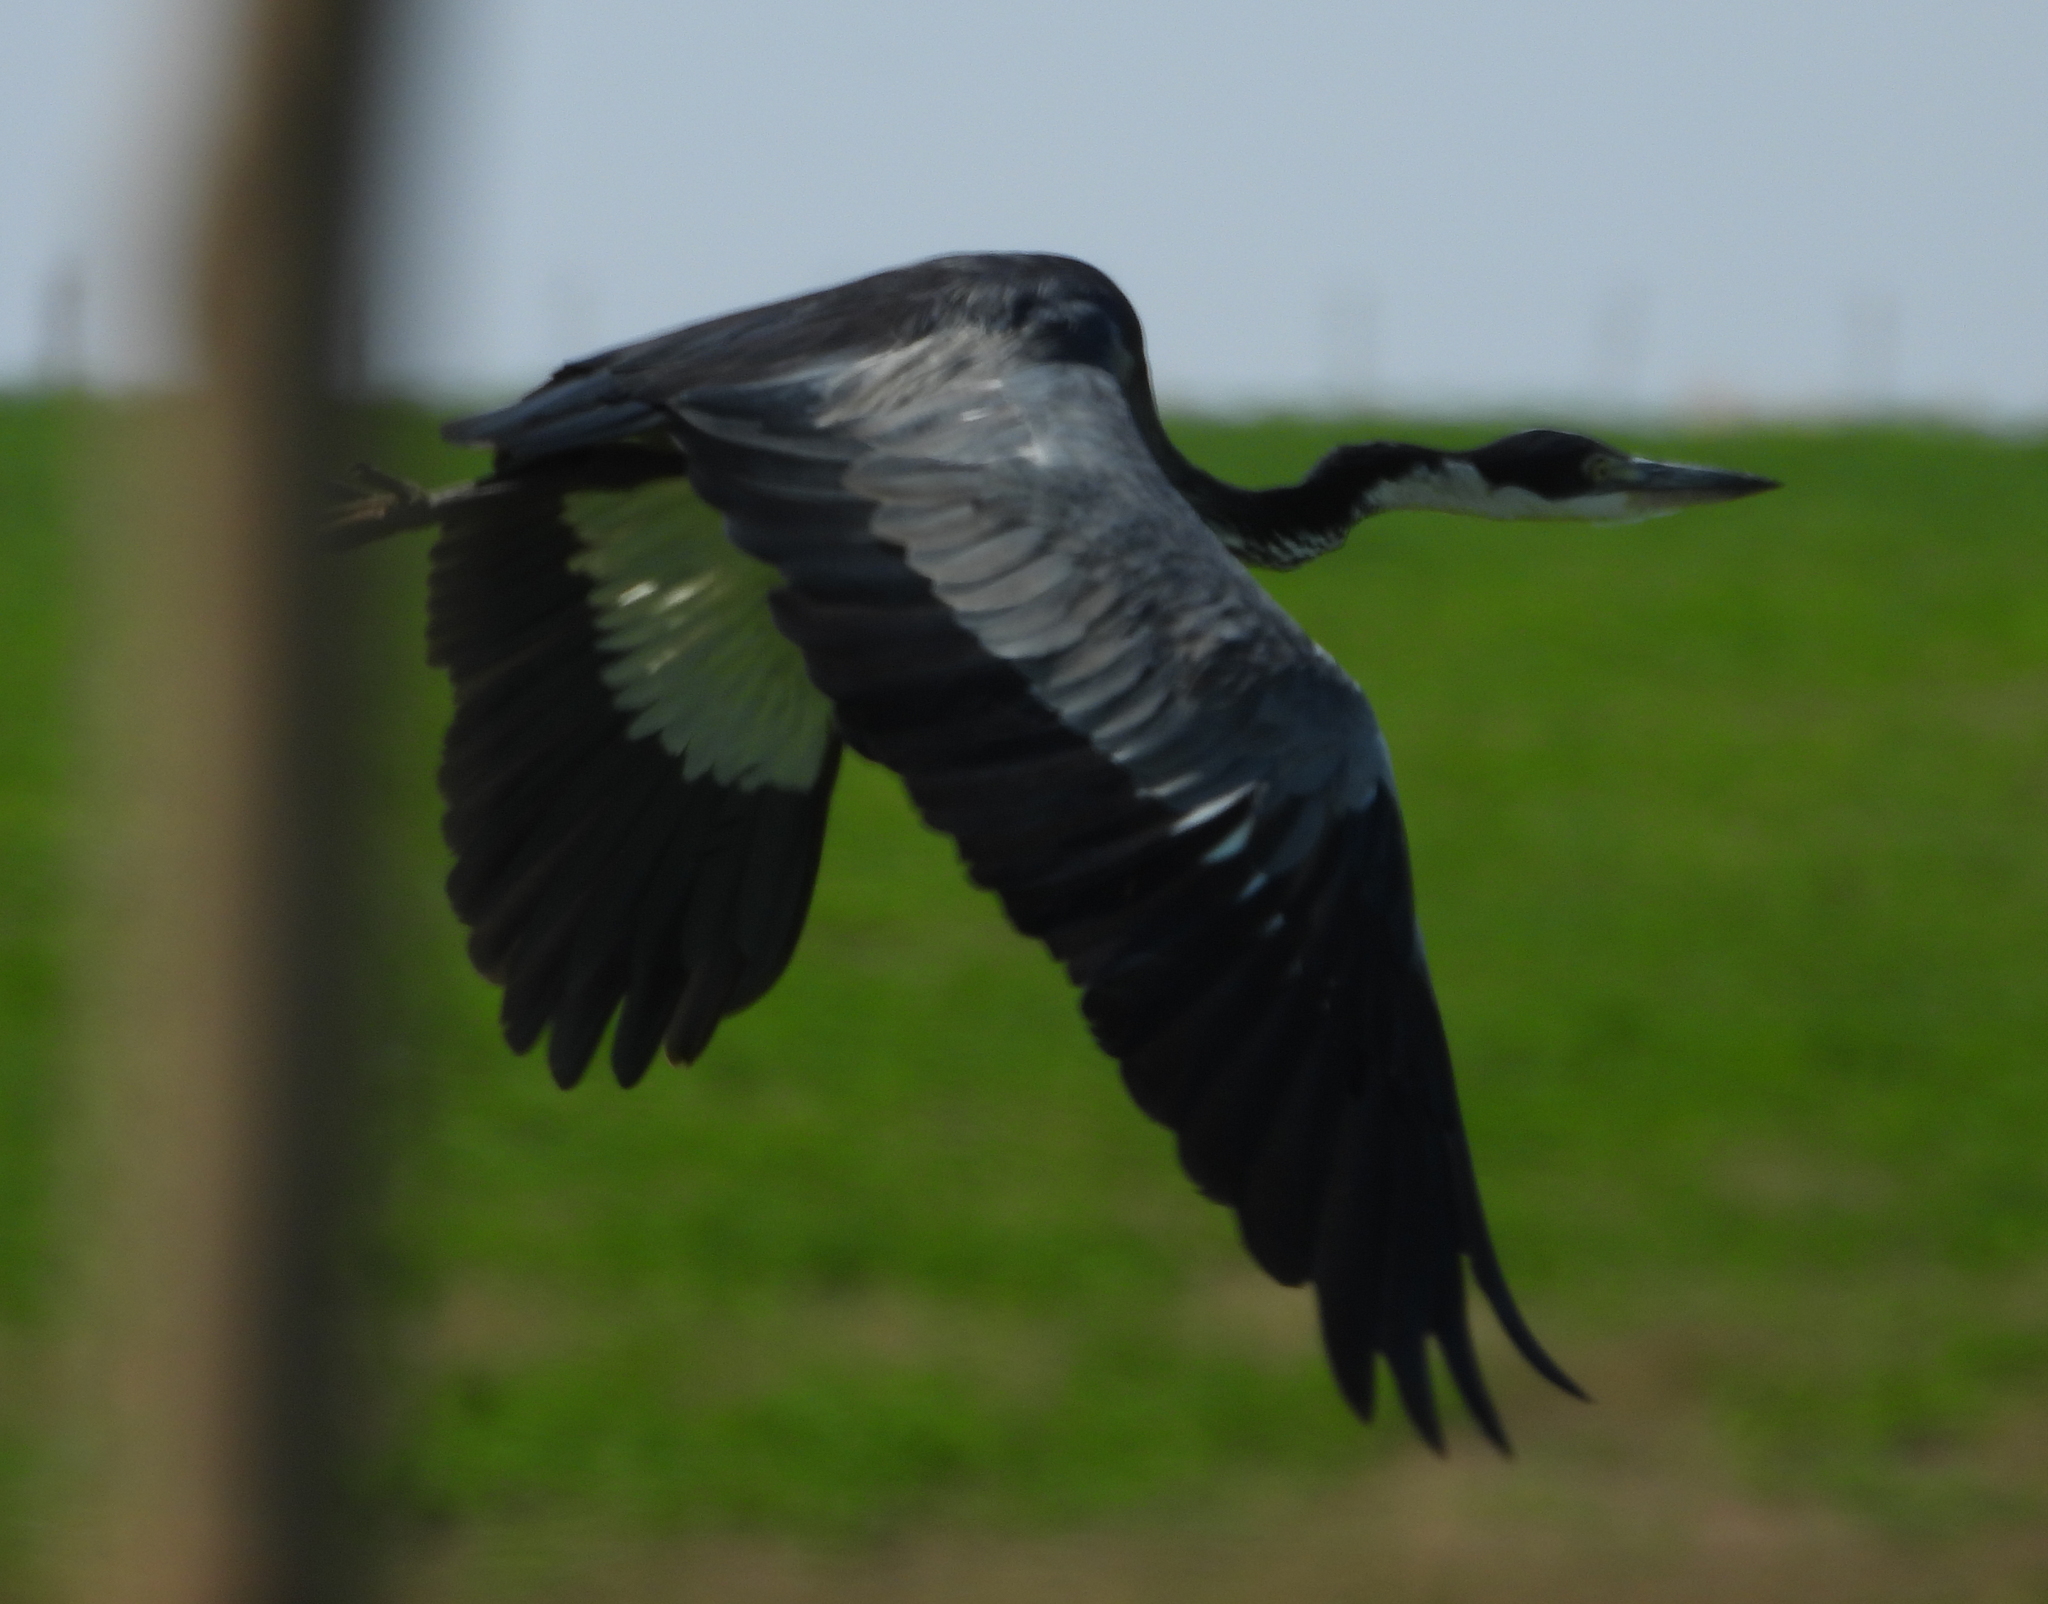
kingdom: Animalia
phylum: Chordata
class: Aves
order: Pelecaniformes
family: Ardeidae
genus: Ardea
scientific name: Ardea melanocephala
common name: Black-headed heron
